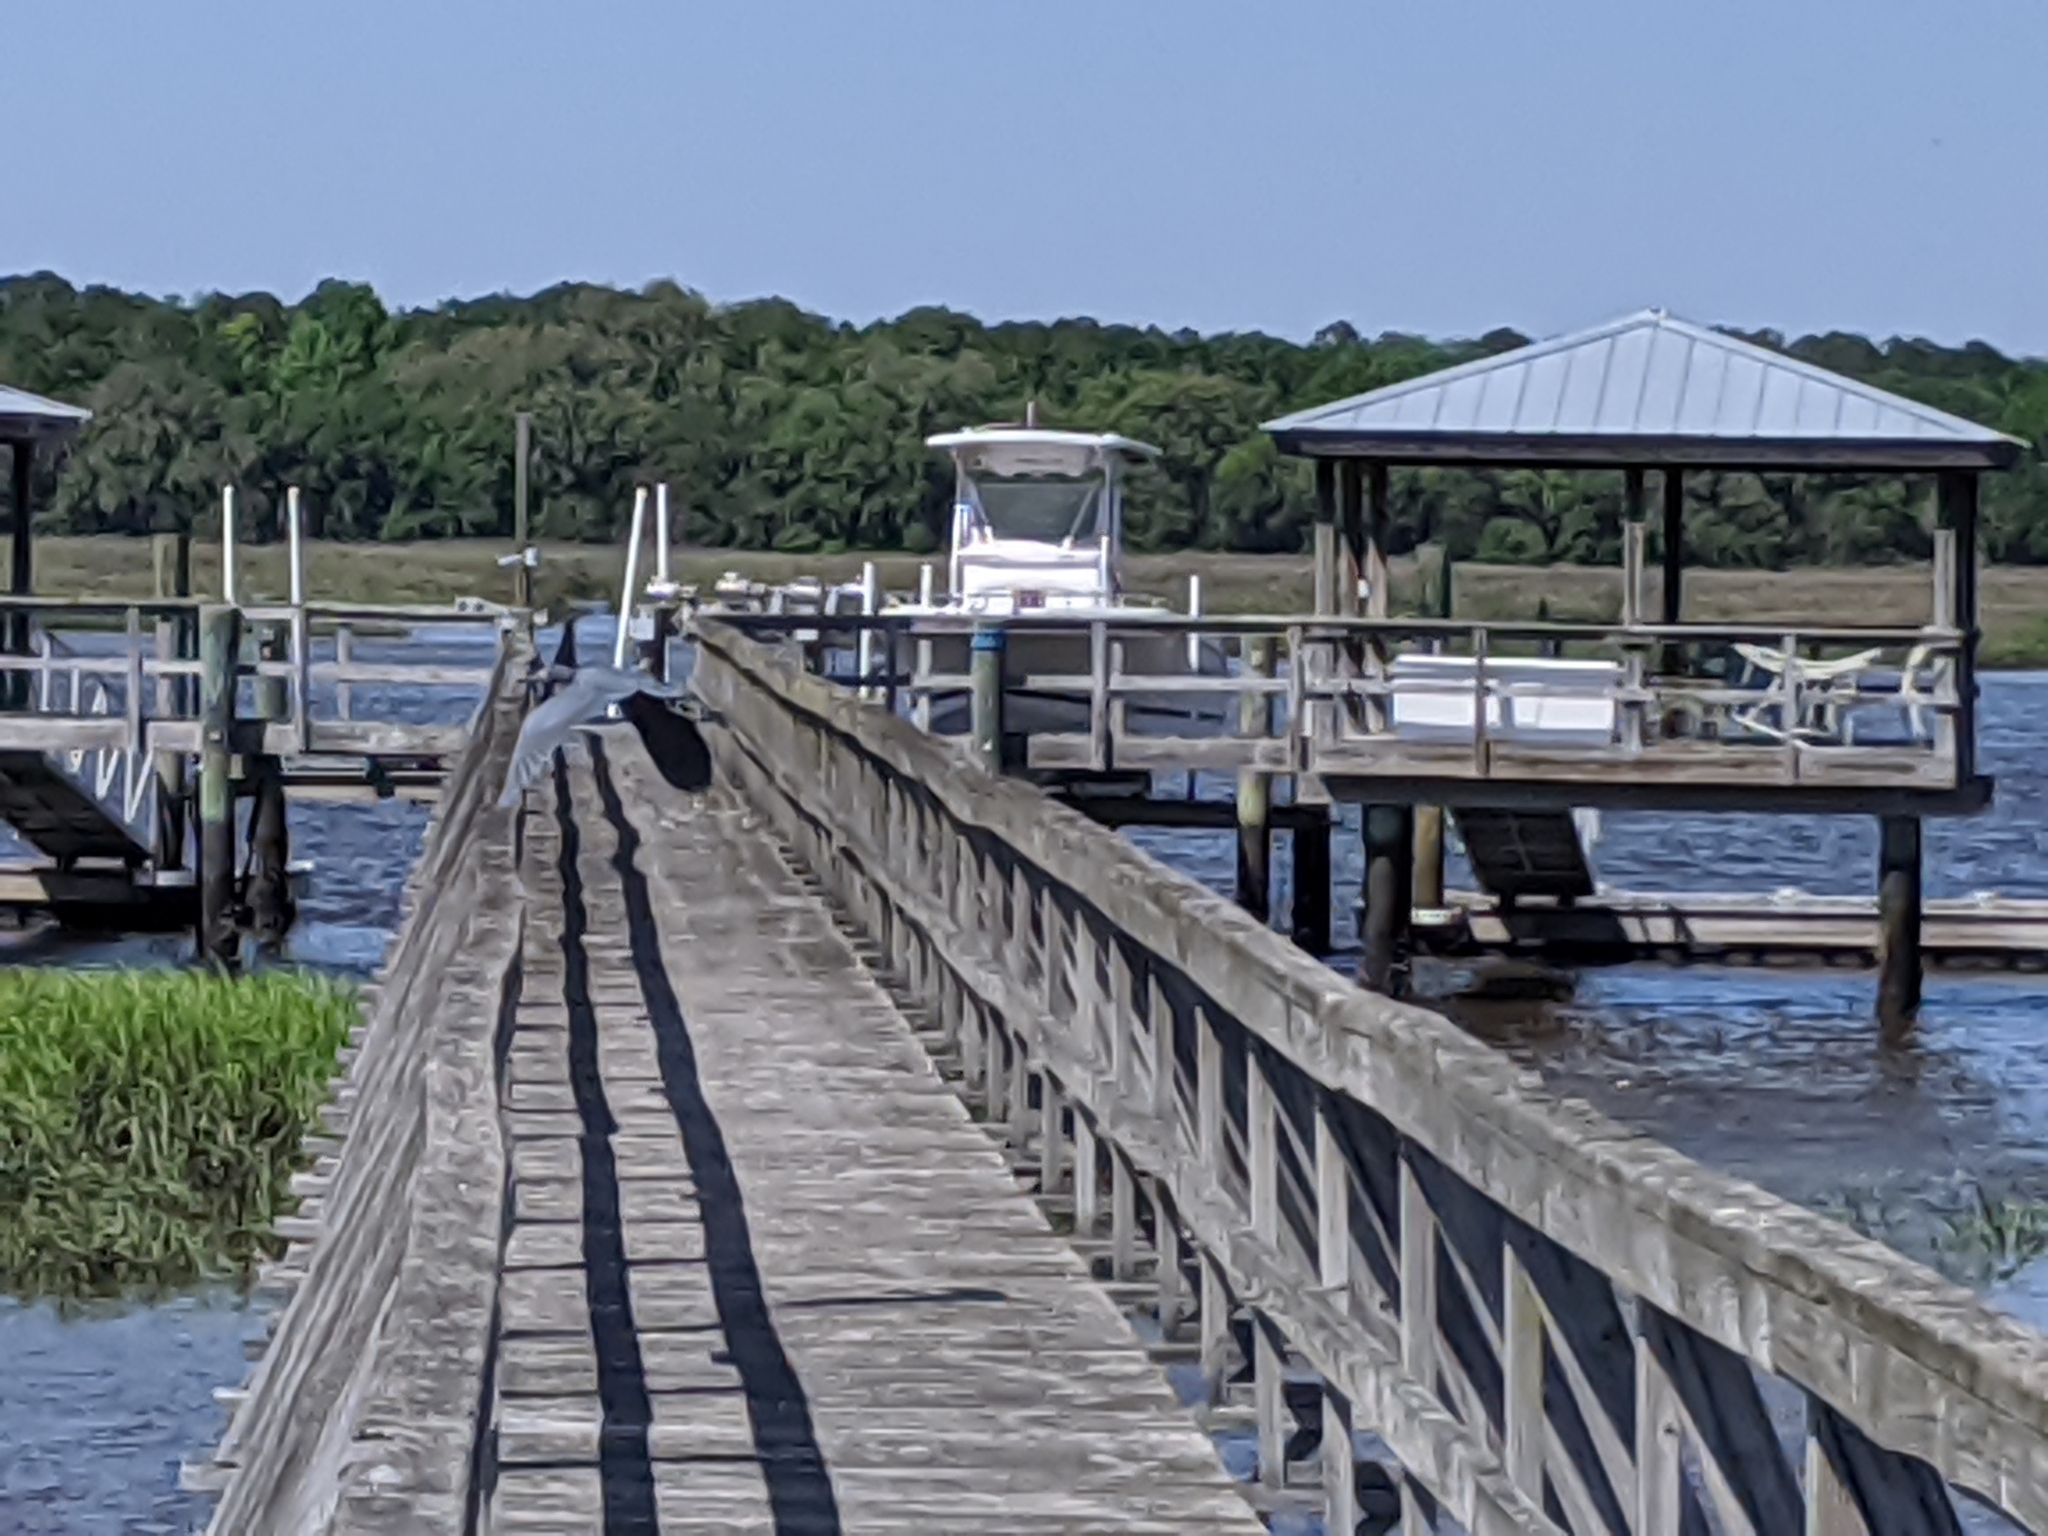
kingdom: Animalia
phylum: Chordata
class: Aves
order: Pelecaniformes
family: Ardeidae
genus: Egretta
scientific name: Egretta caerulea
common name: Little blue heron
